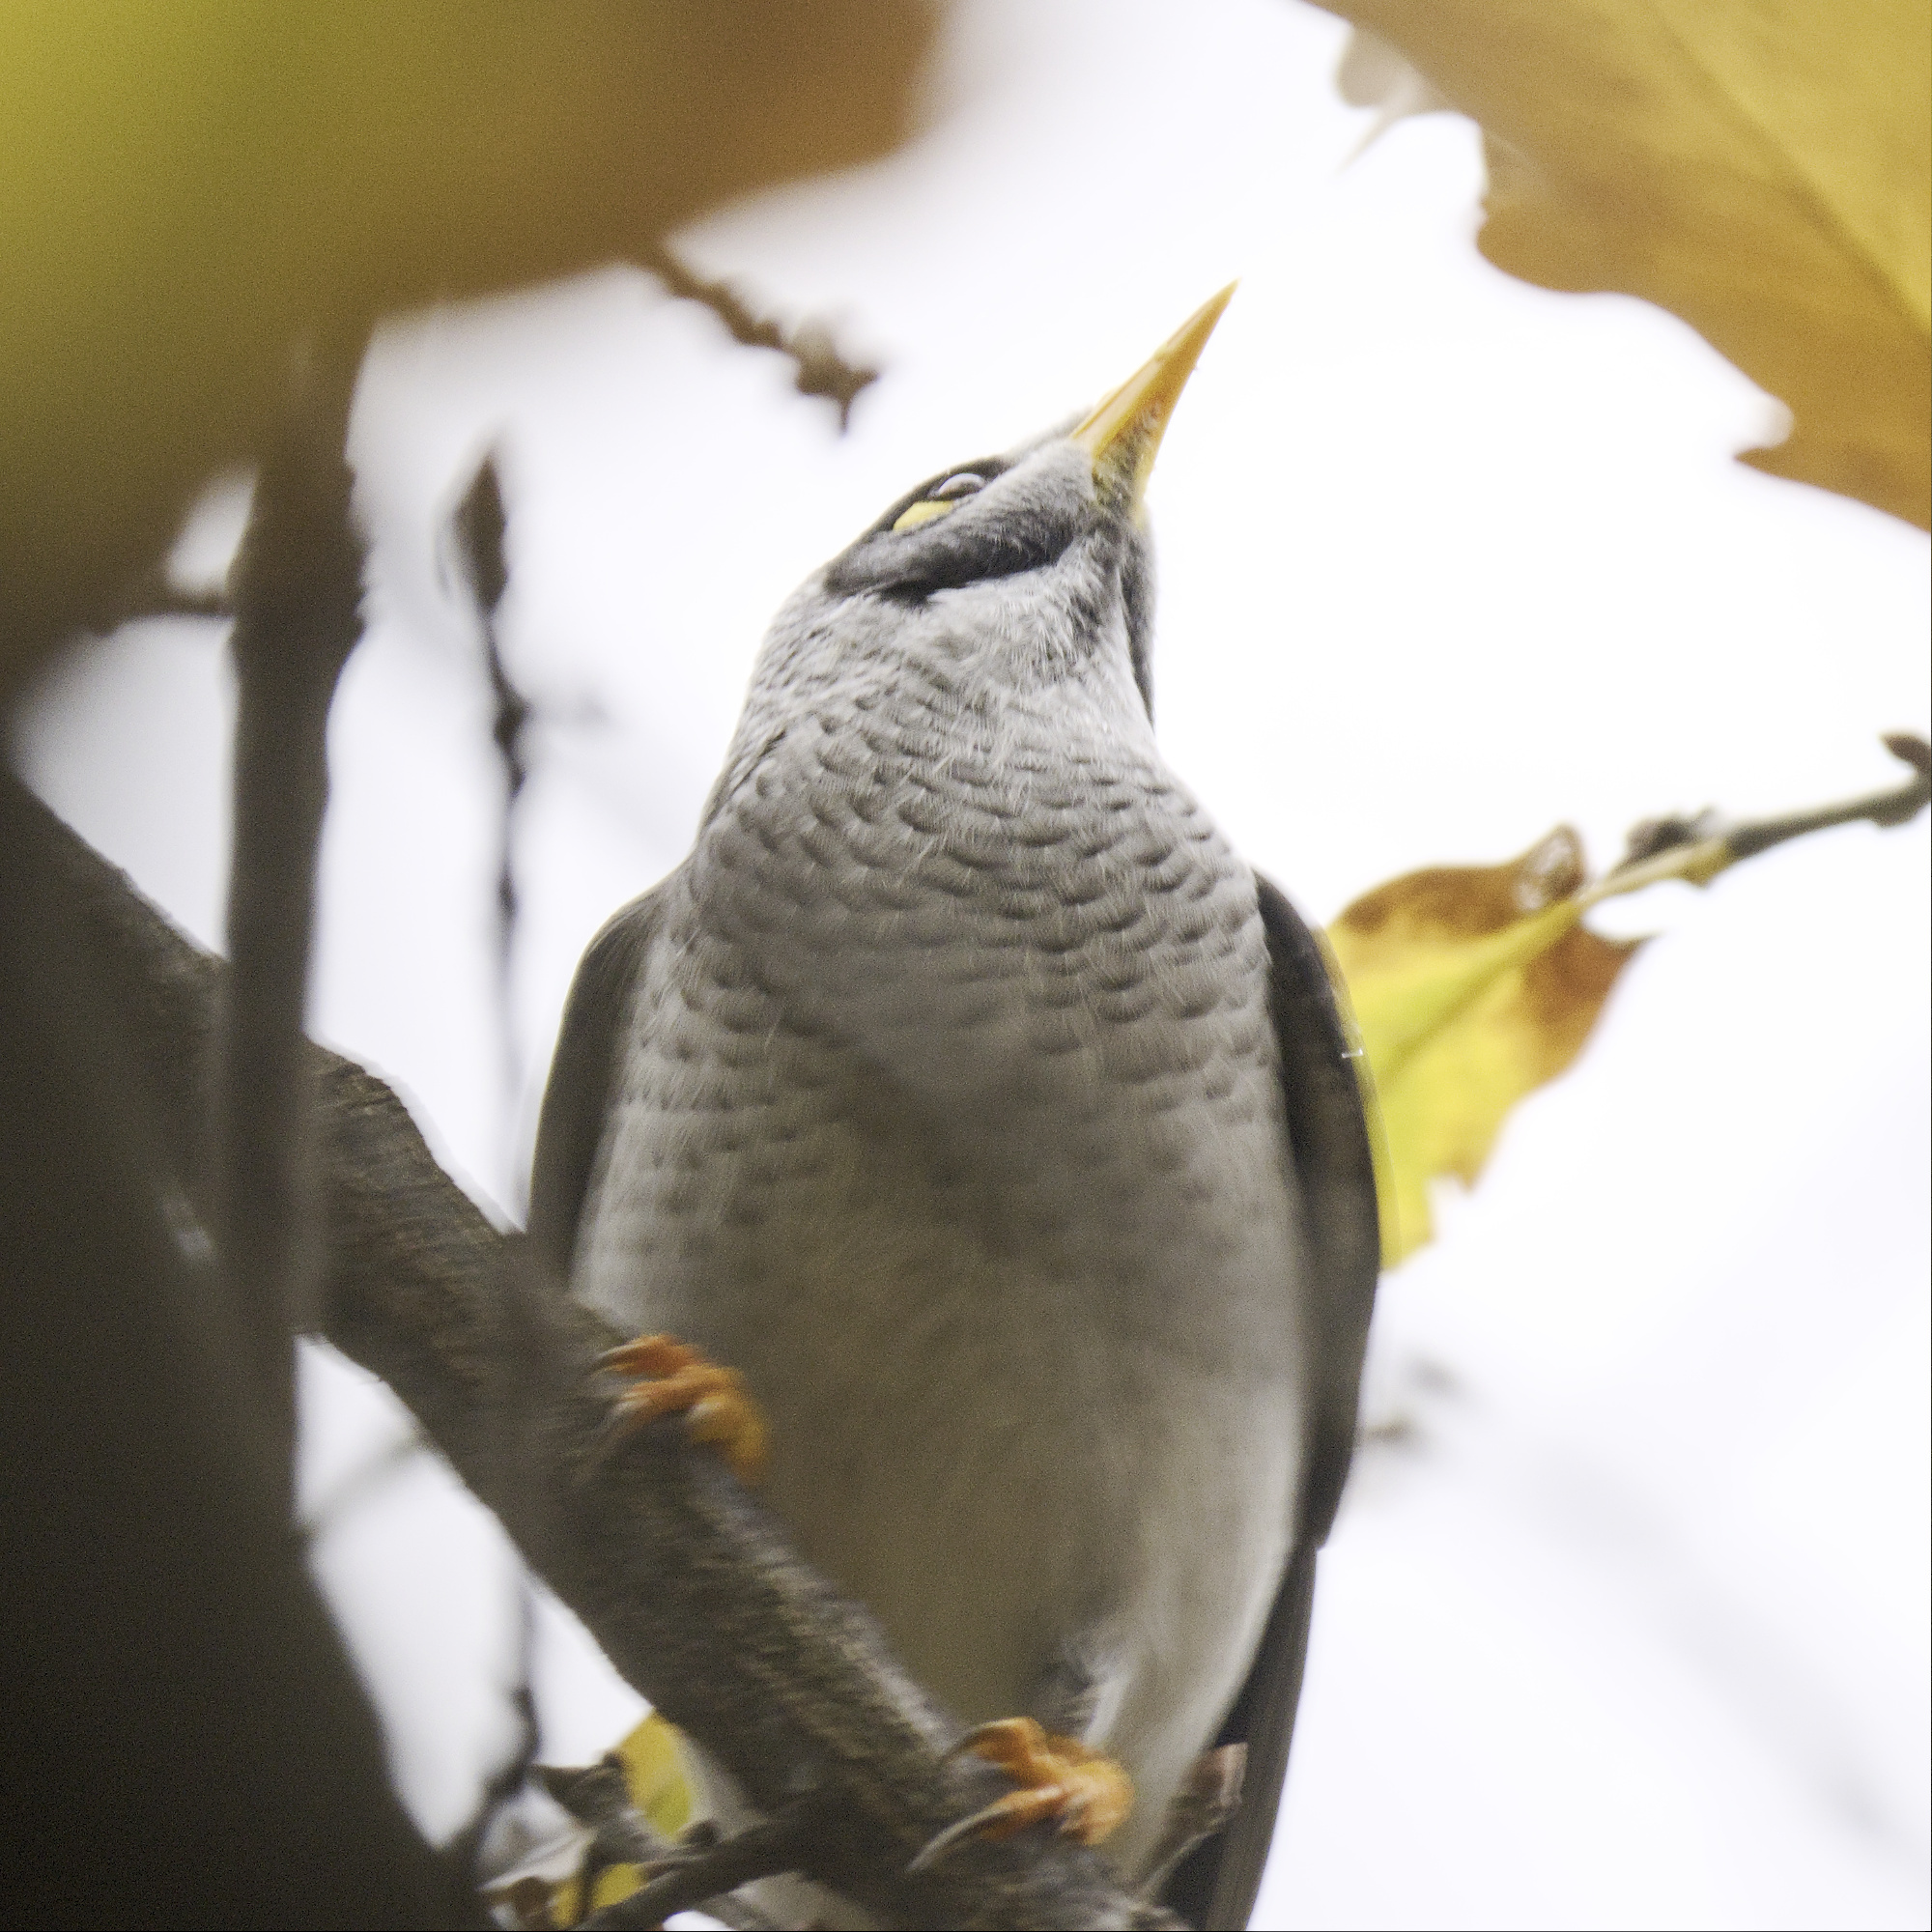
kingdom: Animalia
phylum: Chordata
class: Aves
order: Passeriformes
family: Meliphagidae
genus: Manorina
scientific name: Manorina melanocephala
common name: Noisy miner
